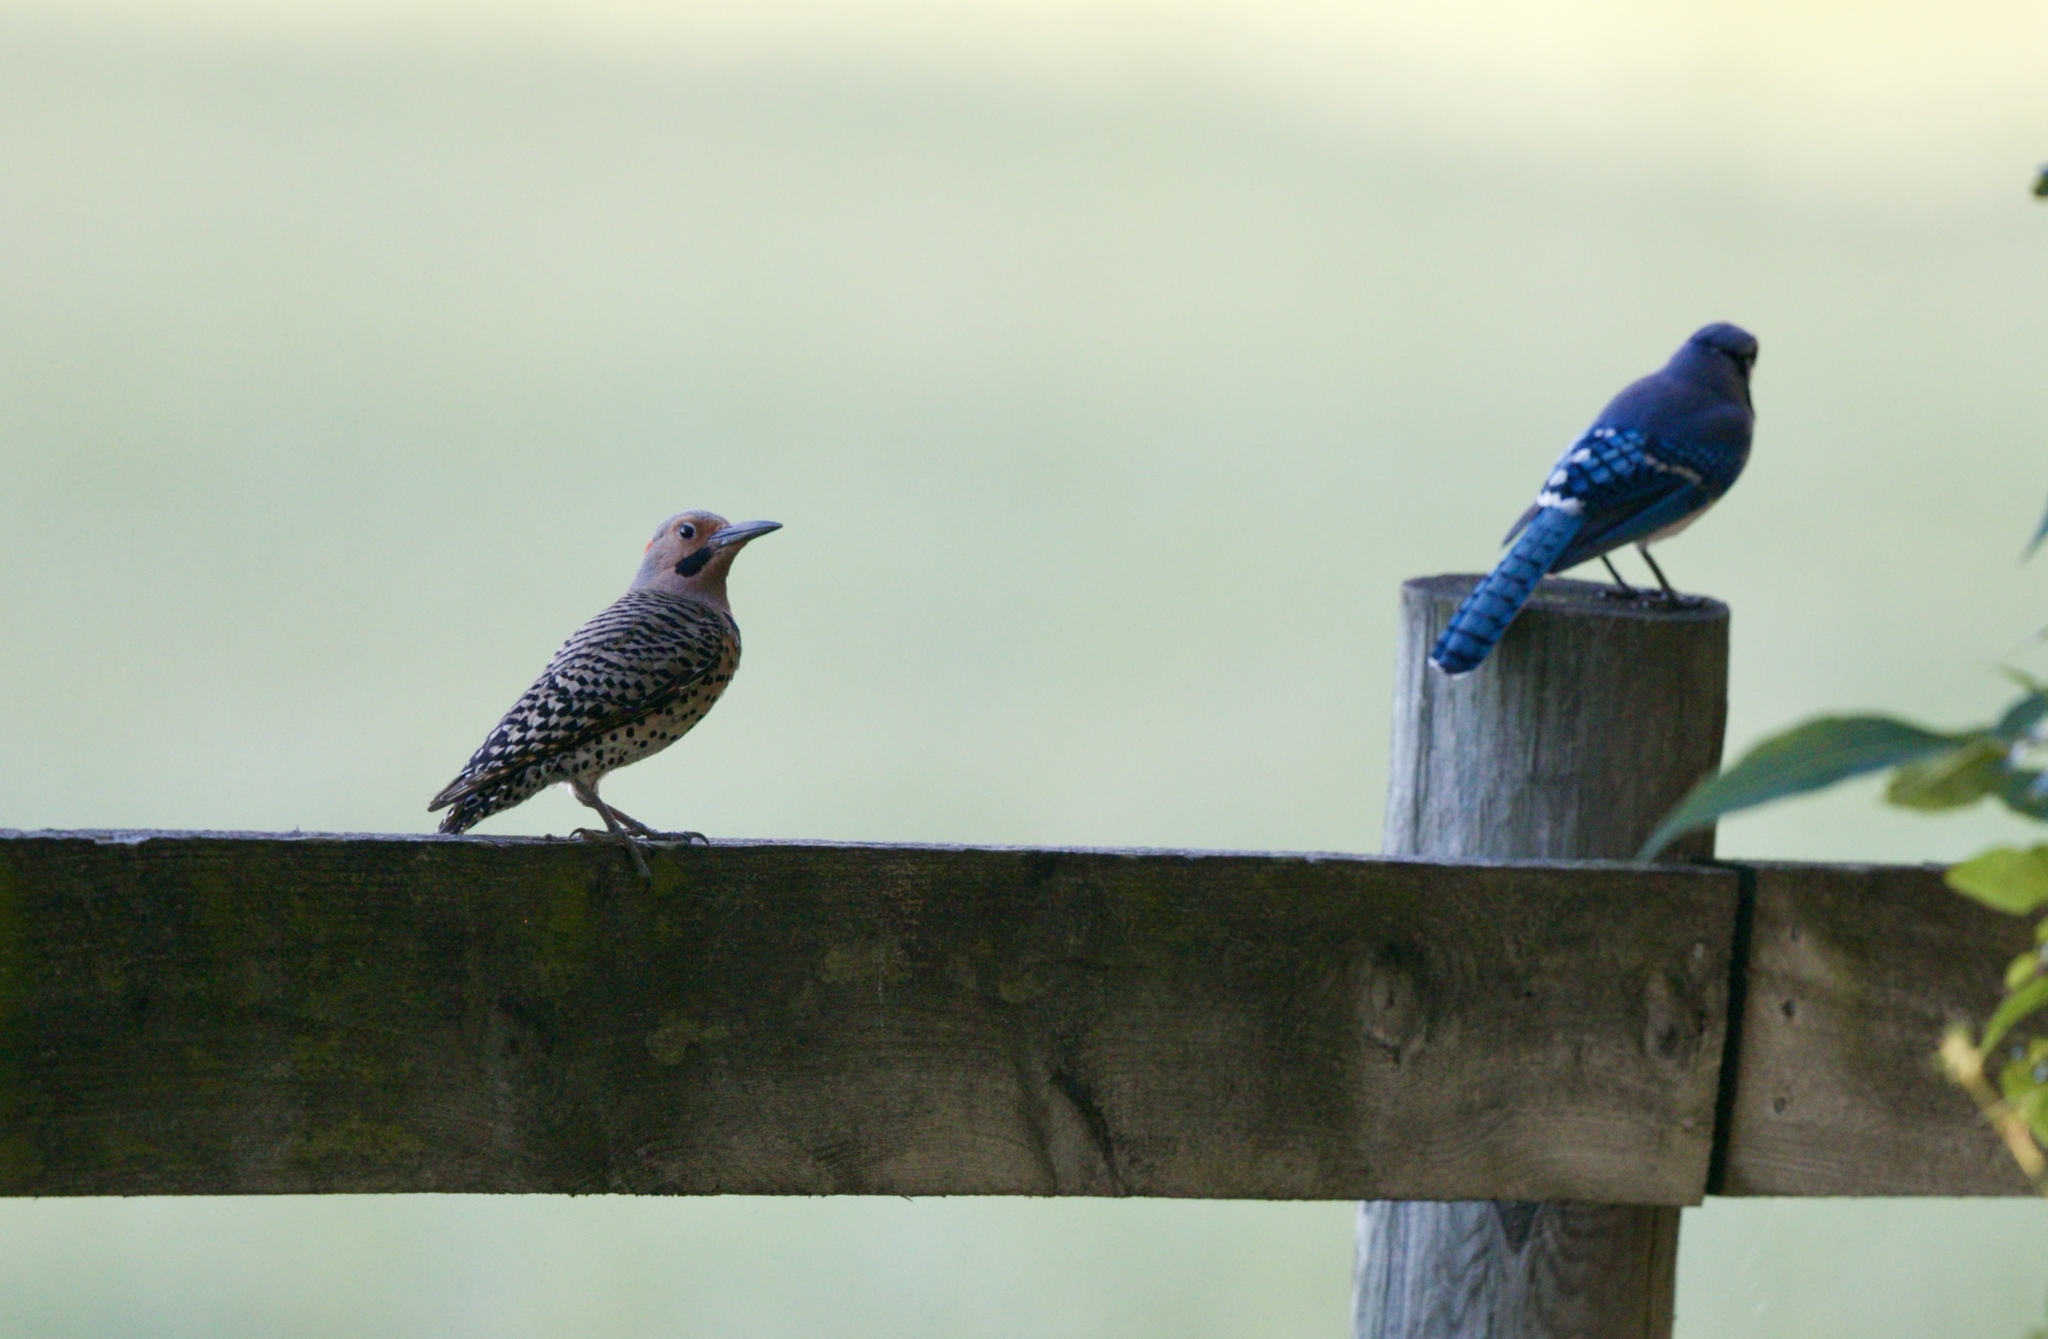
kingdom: Animalia
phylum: Chordata
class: Aves
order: Piciformes
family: Picidae
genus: Colaptes
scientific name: Colaptes auratus
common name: Northern flicker
